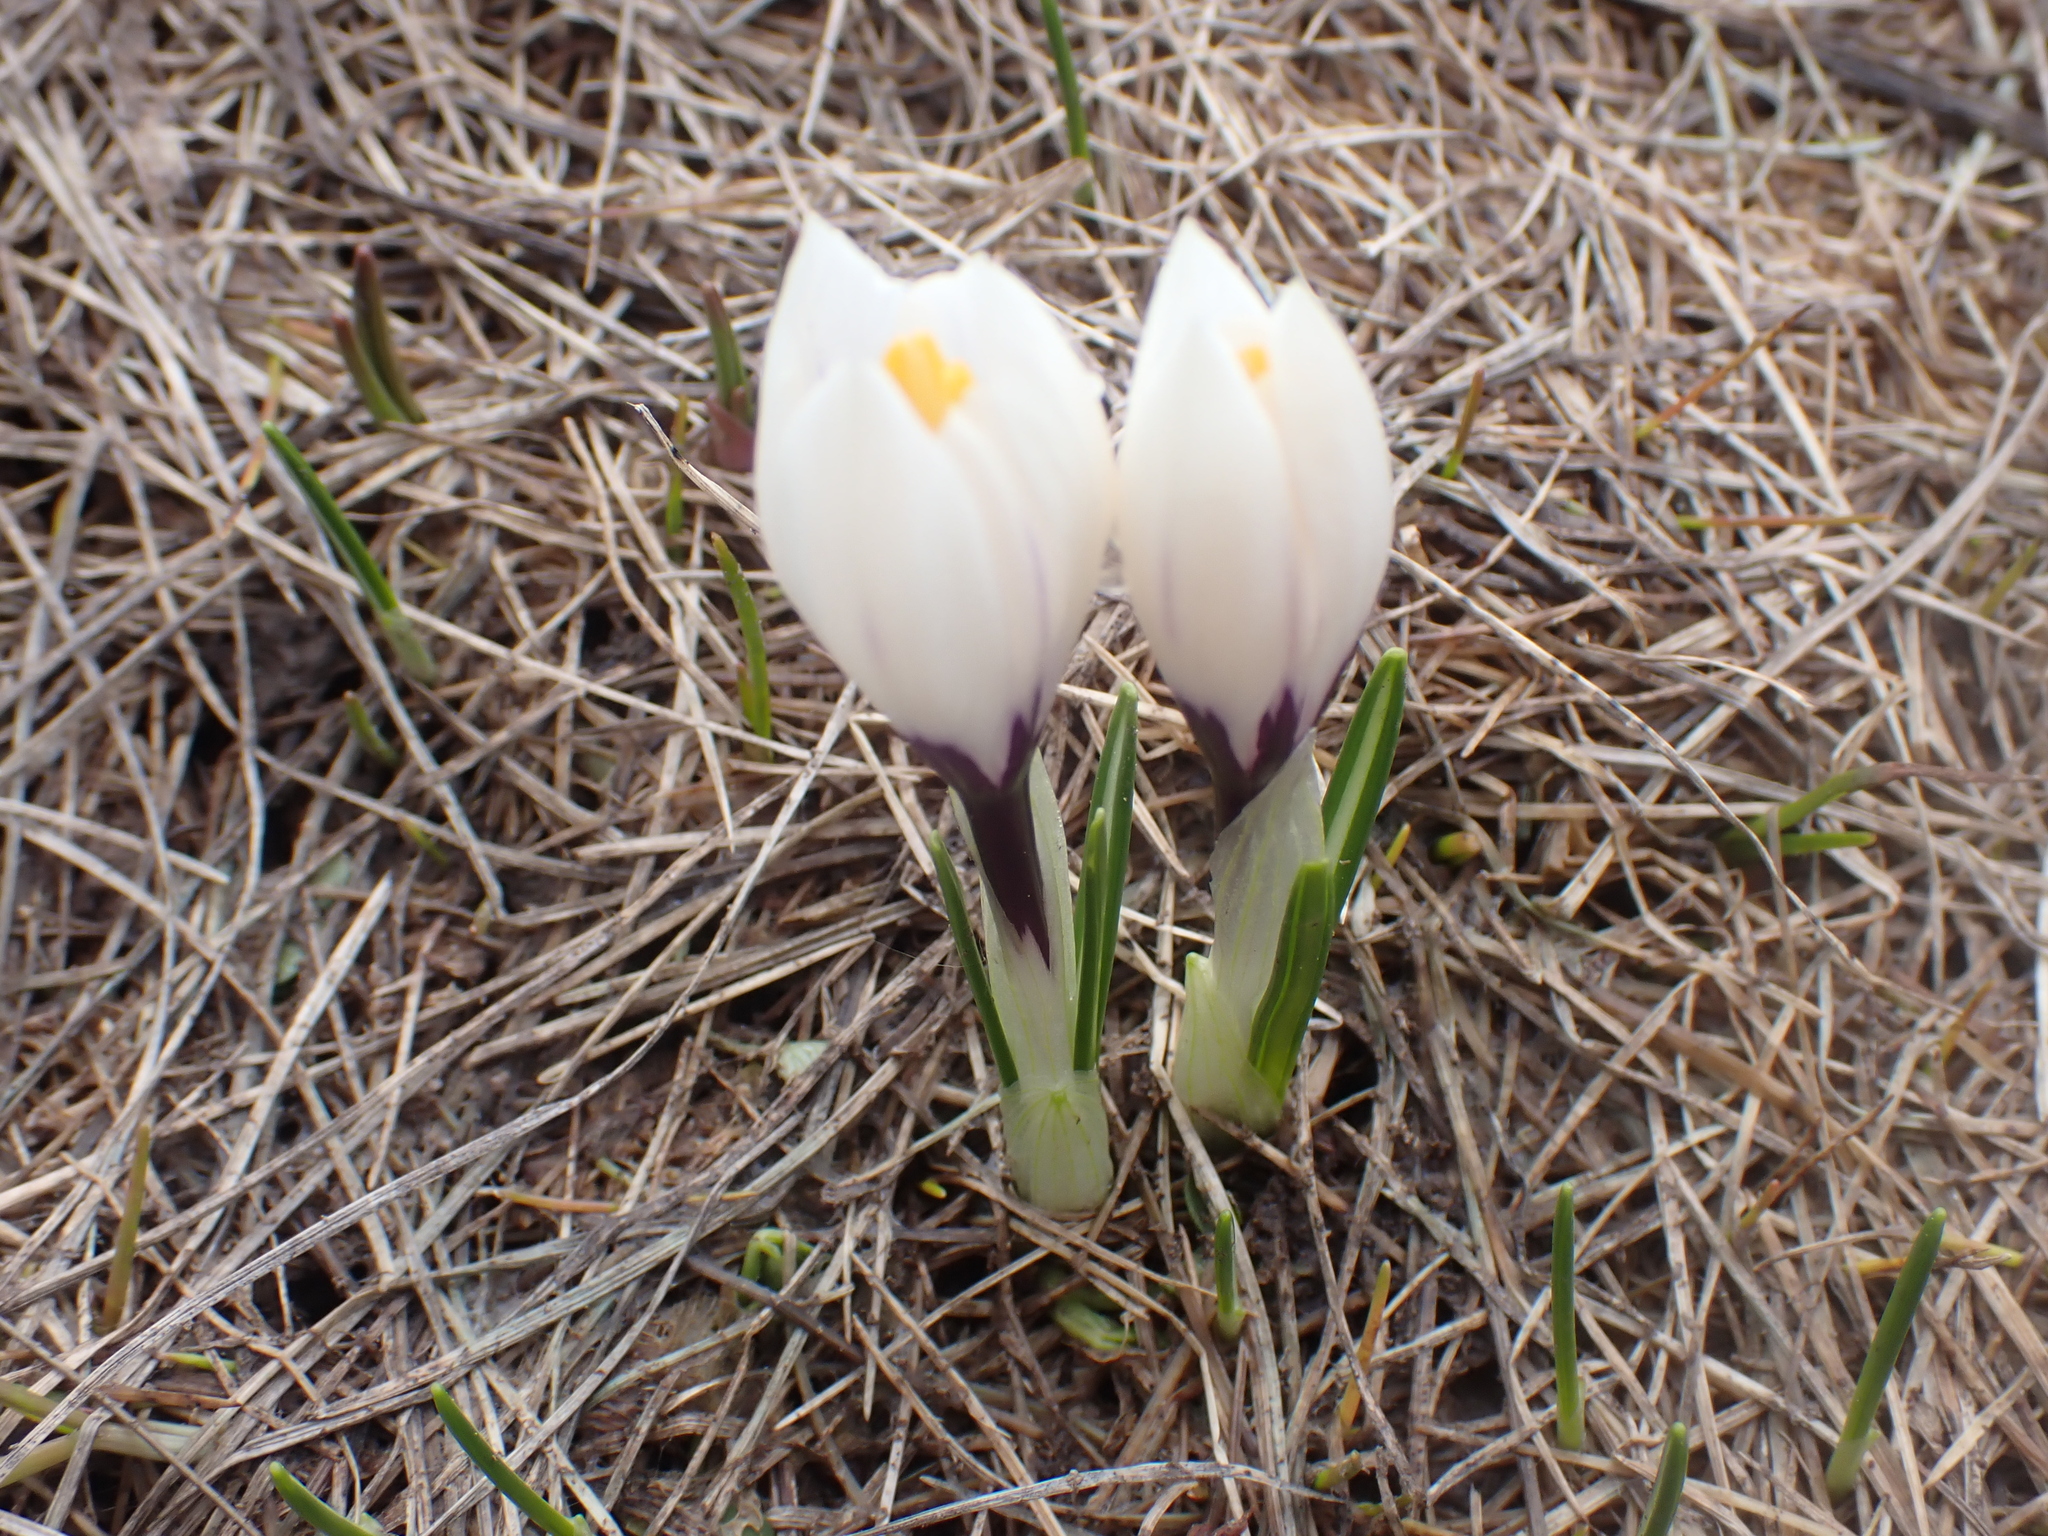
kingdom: Plantae
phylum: Tracheophyta
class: Liliopsida
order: Asparagales
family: Iridaceae
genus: Crocus
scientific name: Crocus vernus
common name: Spring crocus
